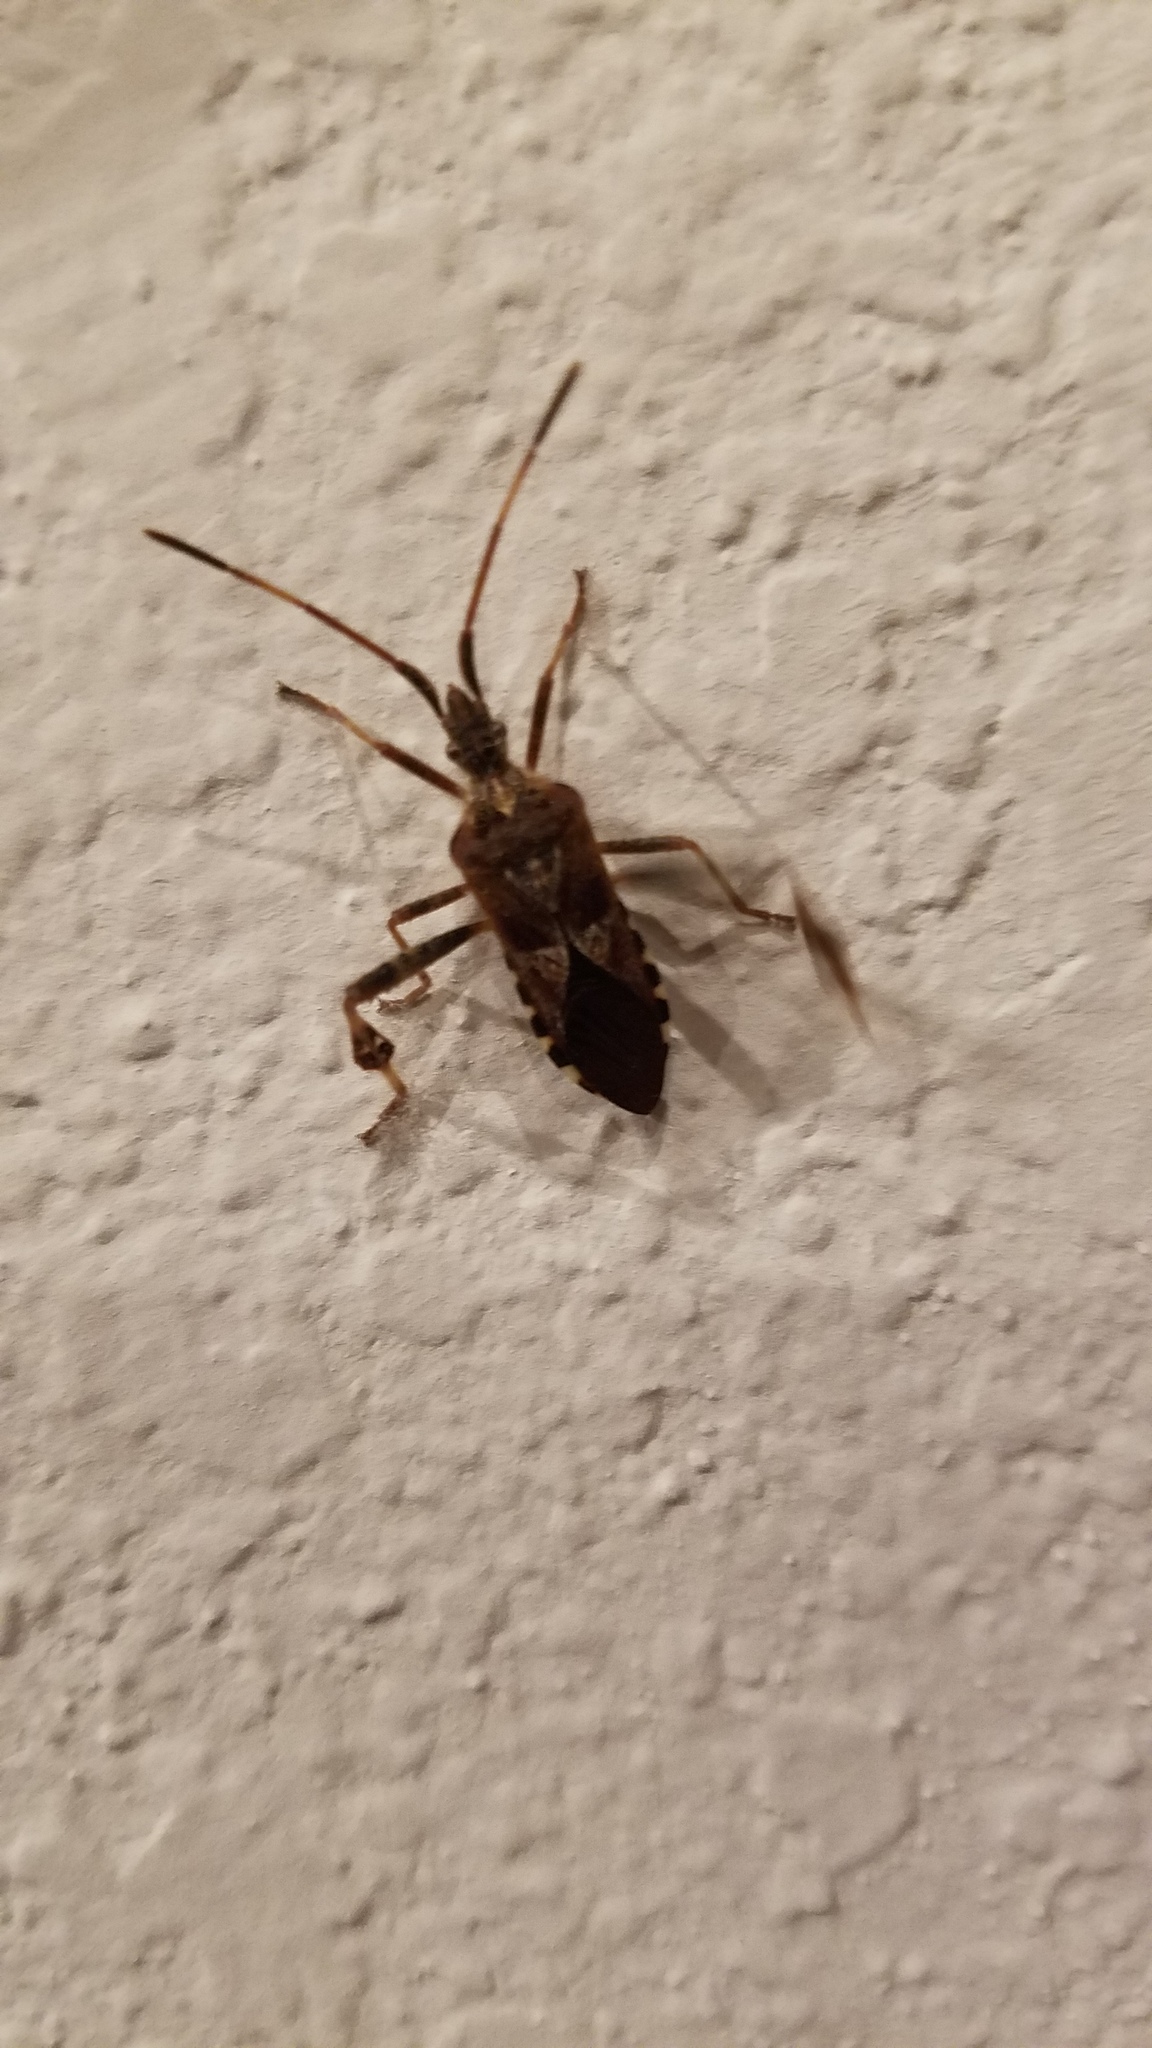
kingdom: Animalia
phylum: Arthropoda
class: Insecta
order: Hemiptera
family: Coreidae
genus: Leptoglossus
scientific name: Leptoglossus occidentalis
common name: Western conifer-seed bug
